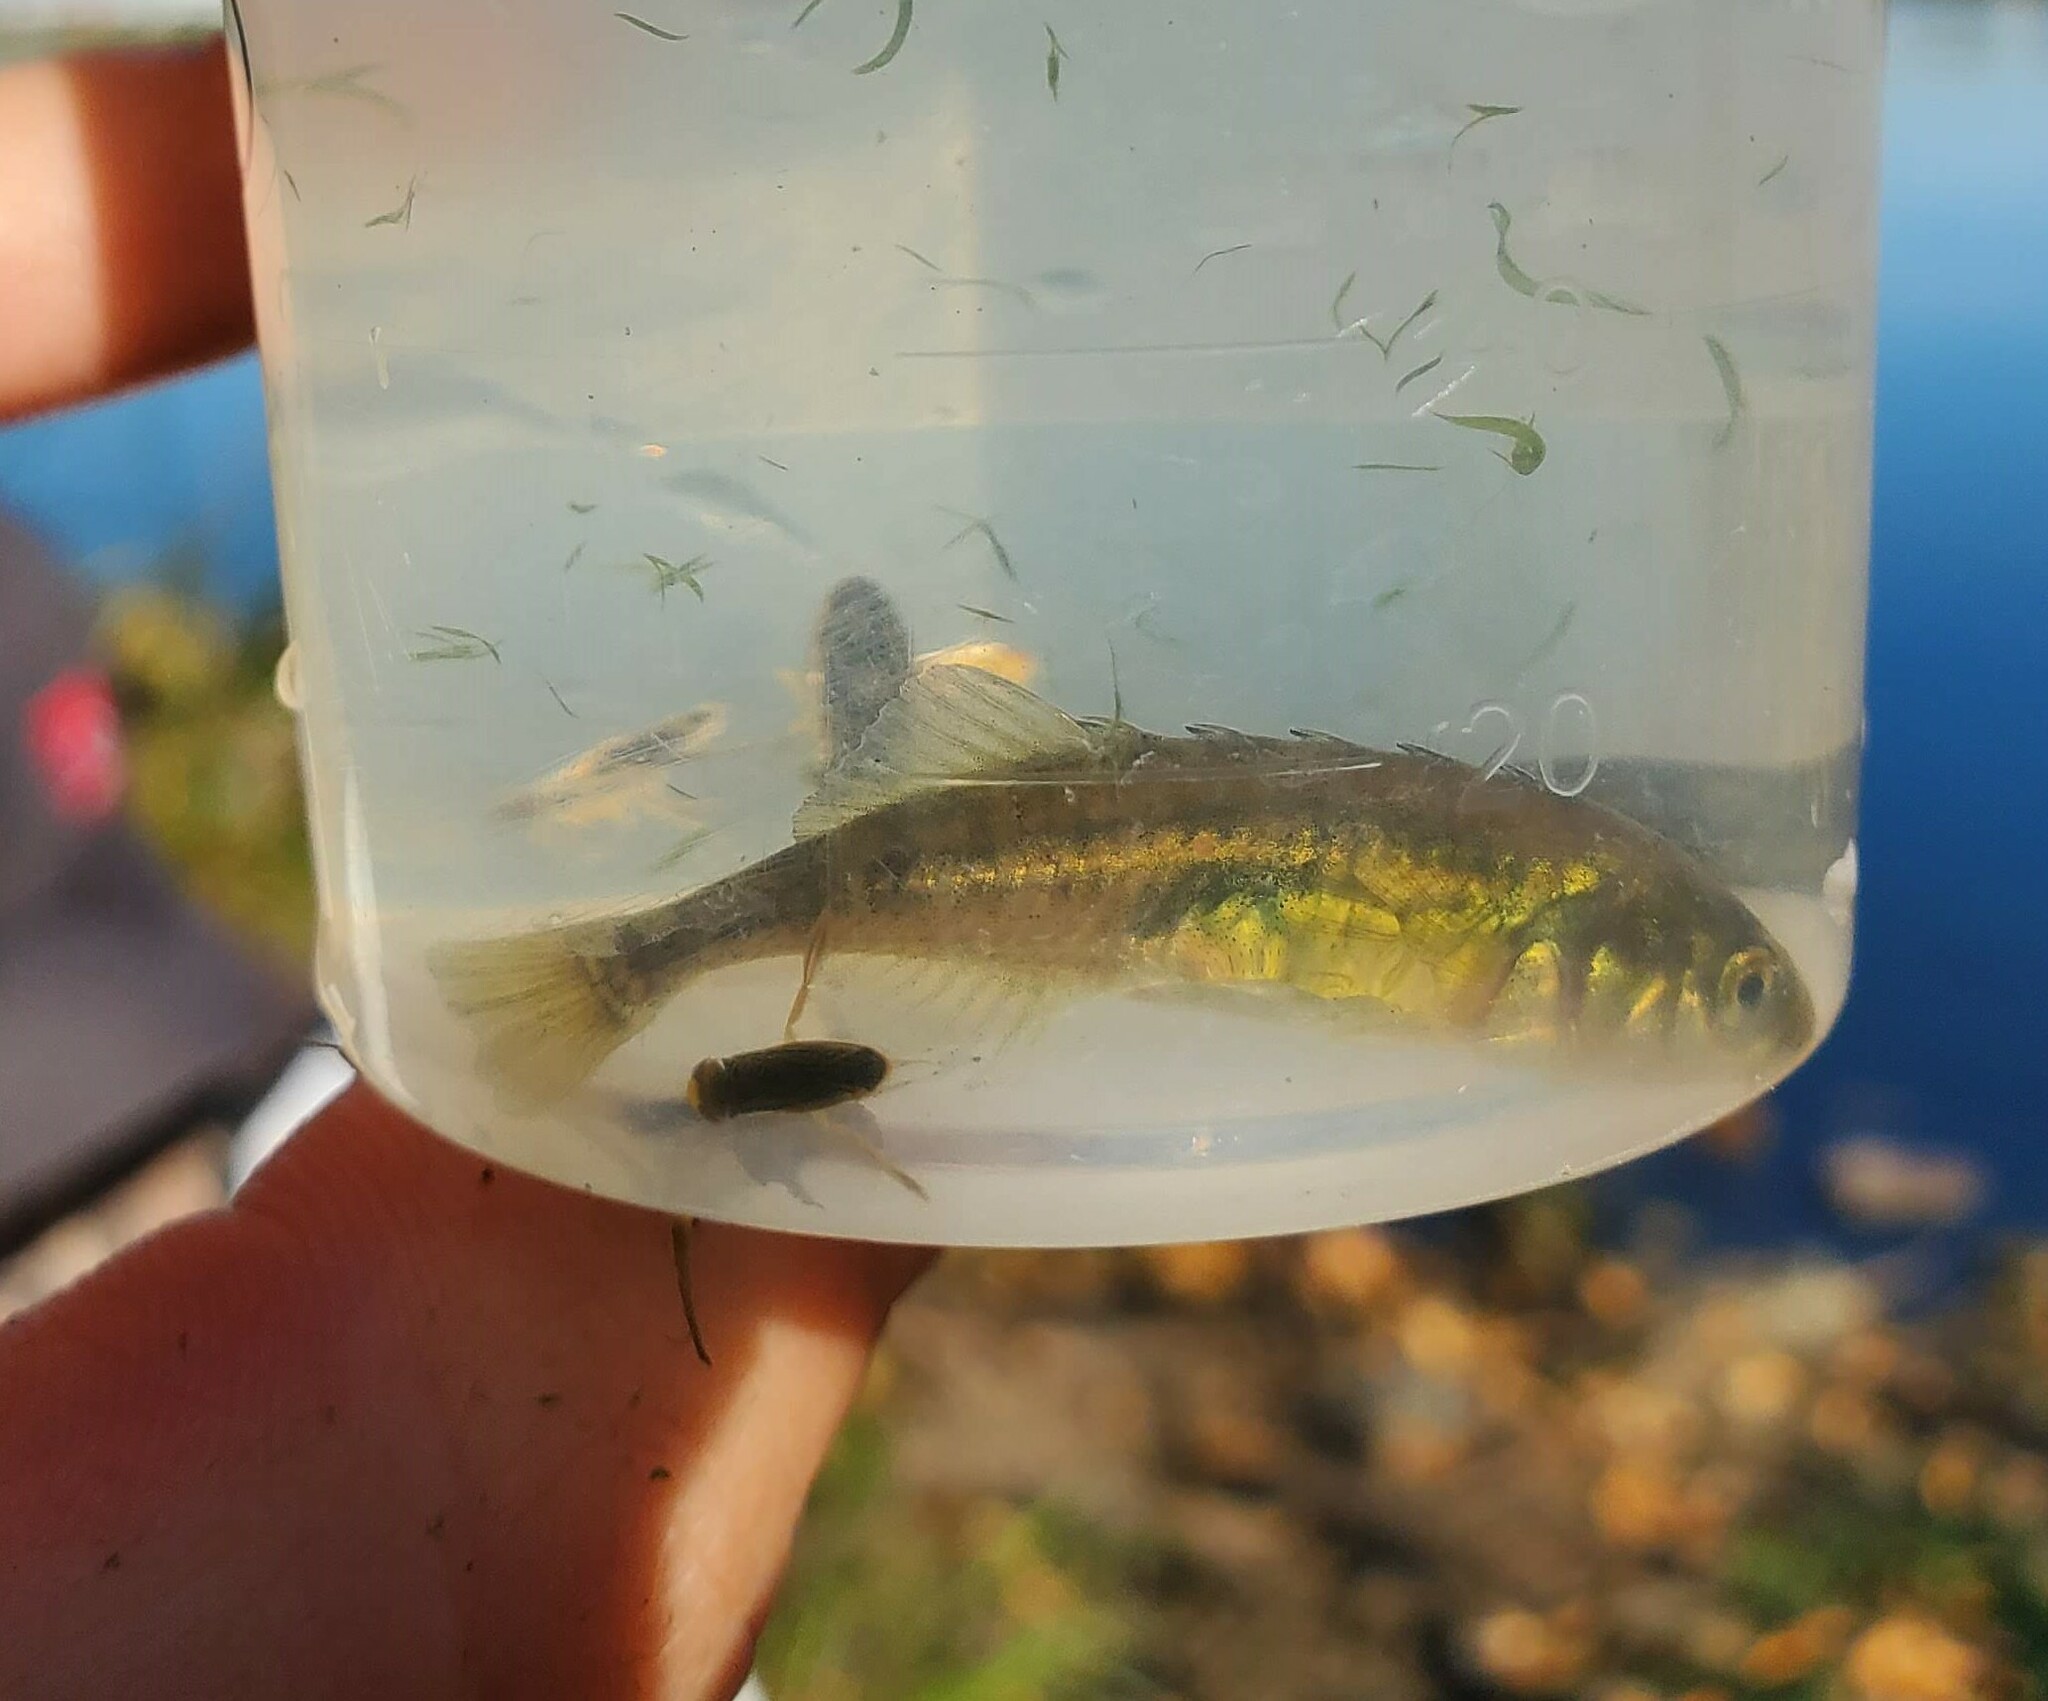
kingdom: Animalia
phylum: Chordata
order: Gasterosteiformes
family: Gasterosteidae
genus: Culaea
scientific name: Culaea inconstans
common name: Brook stickleback
